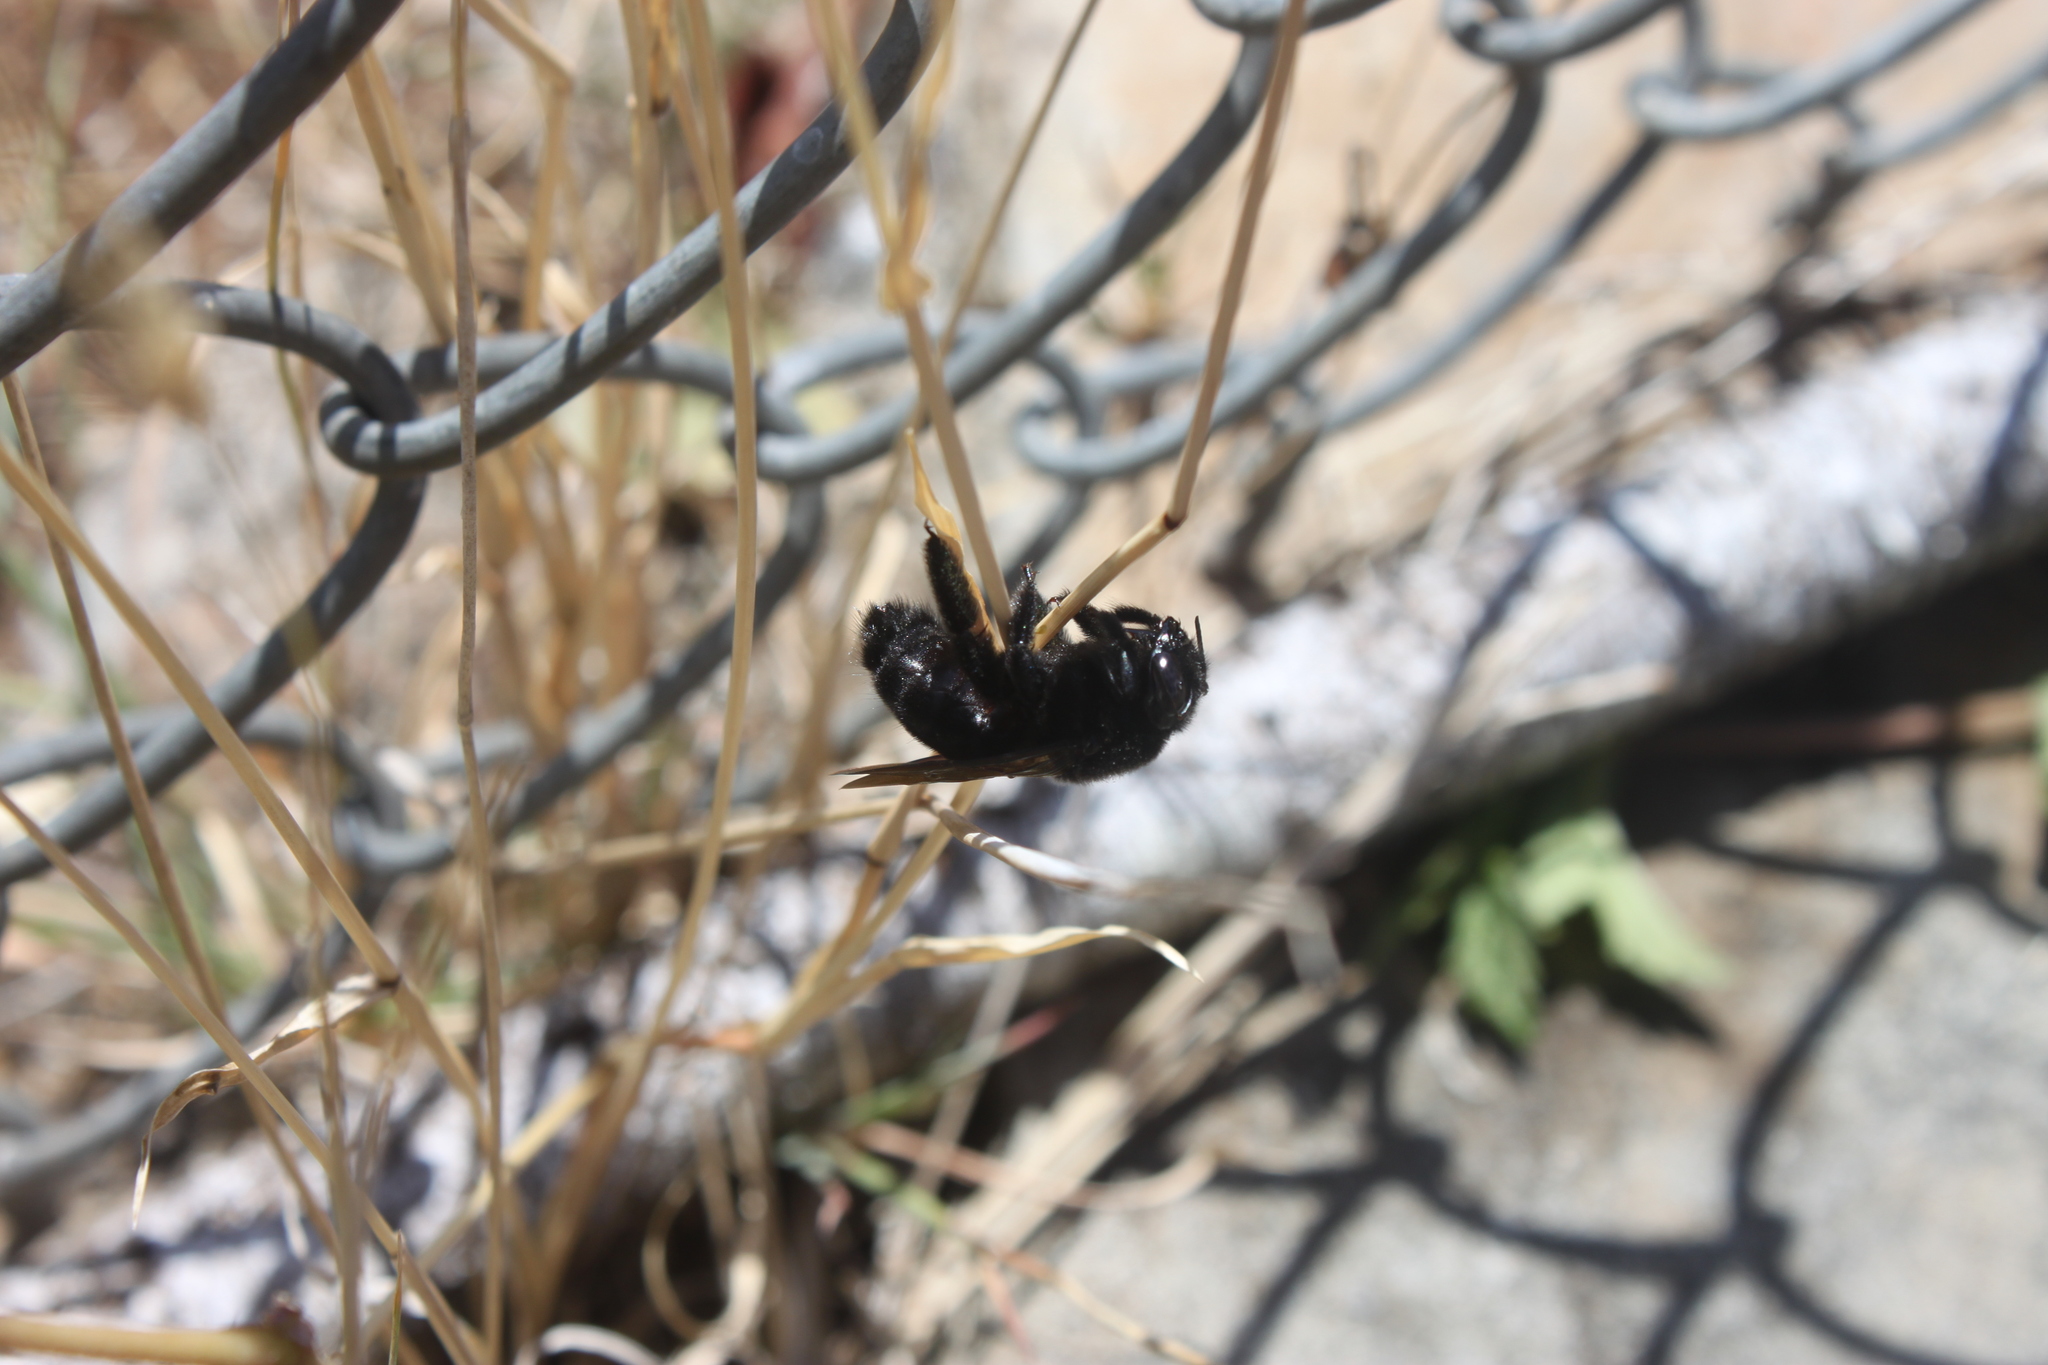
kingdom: Animalia
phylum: Arthropoda
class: Insecta
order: Hymenoptera
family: Apidae
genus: Xylocopa
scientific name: Xylocopa sonorina
